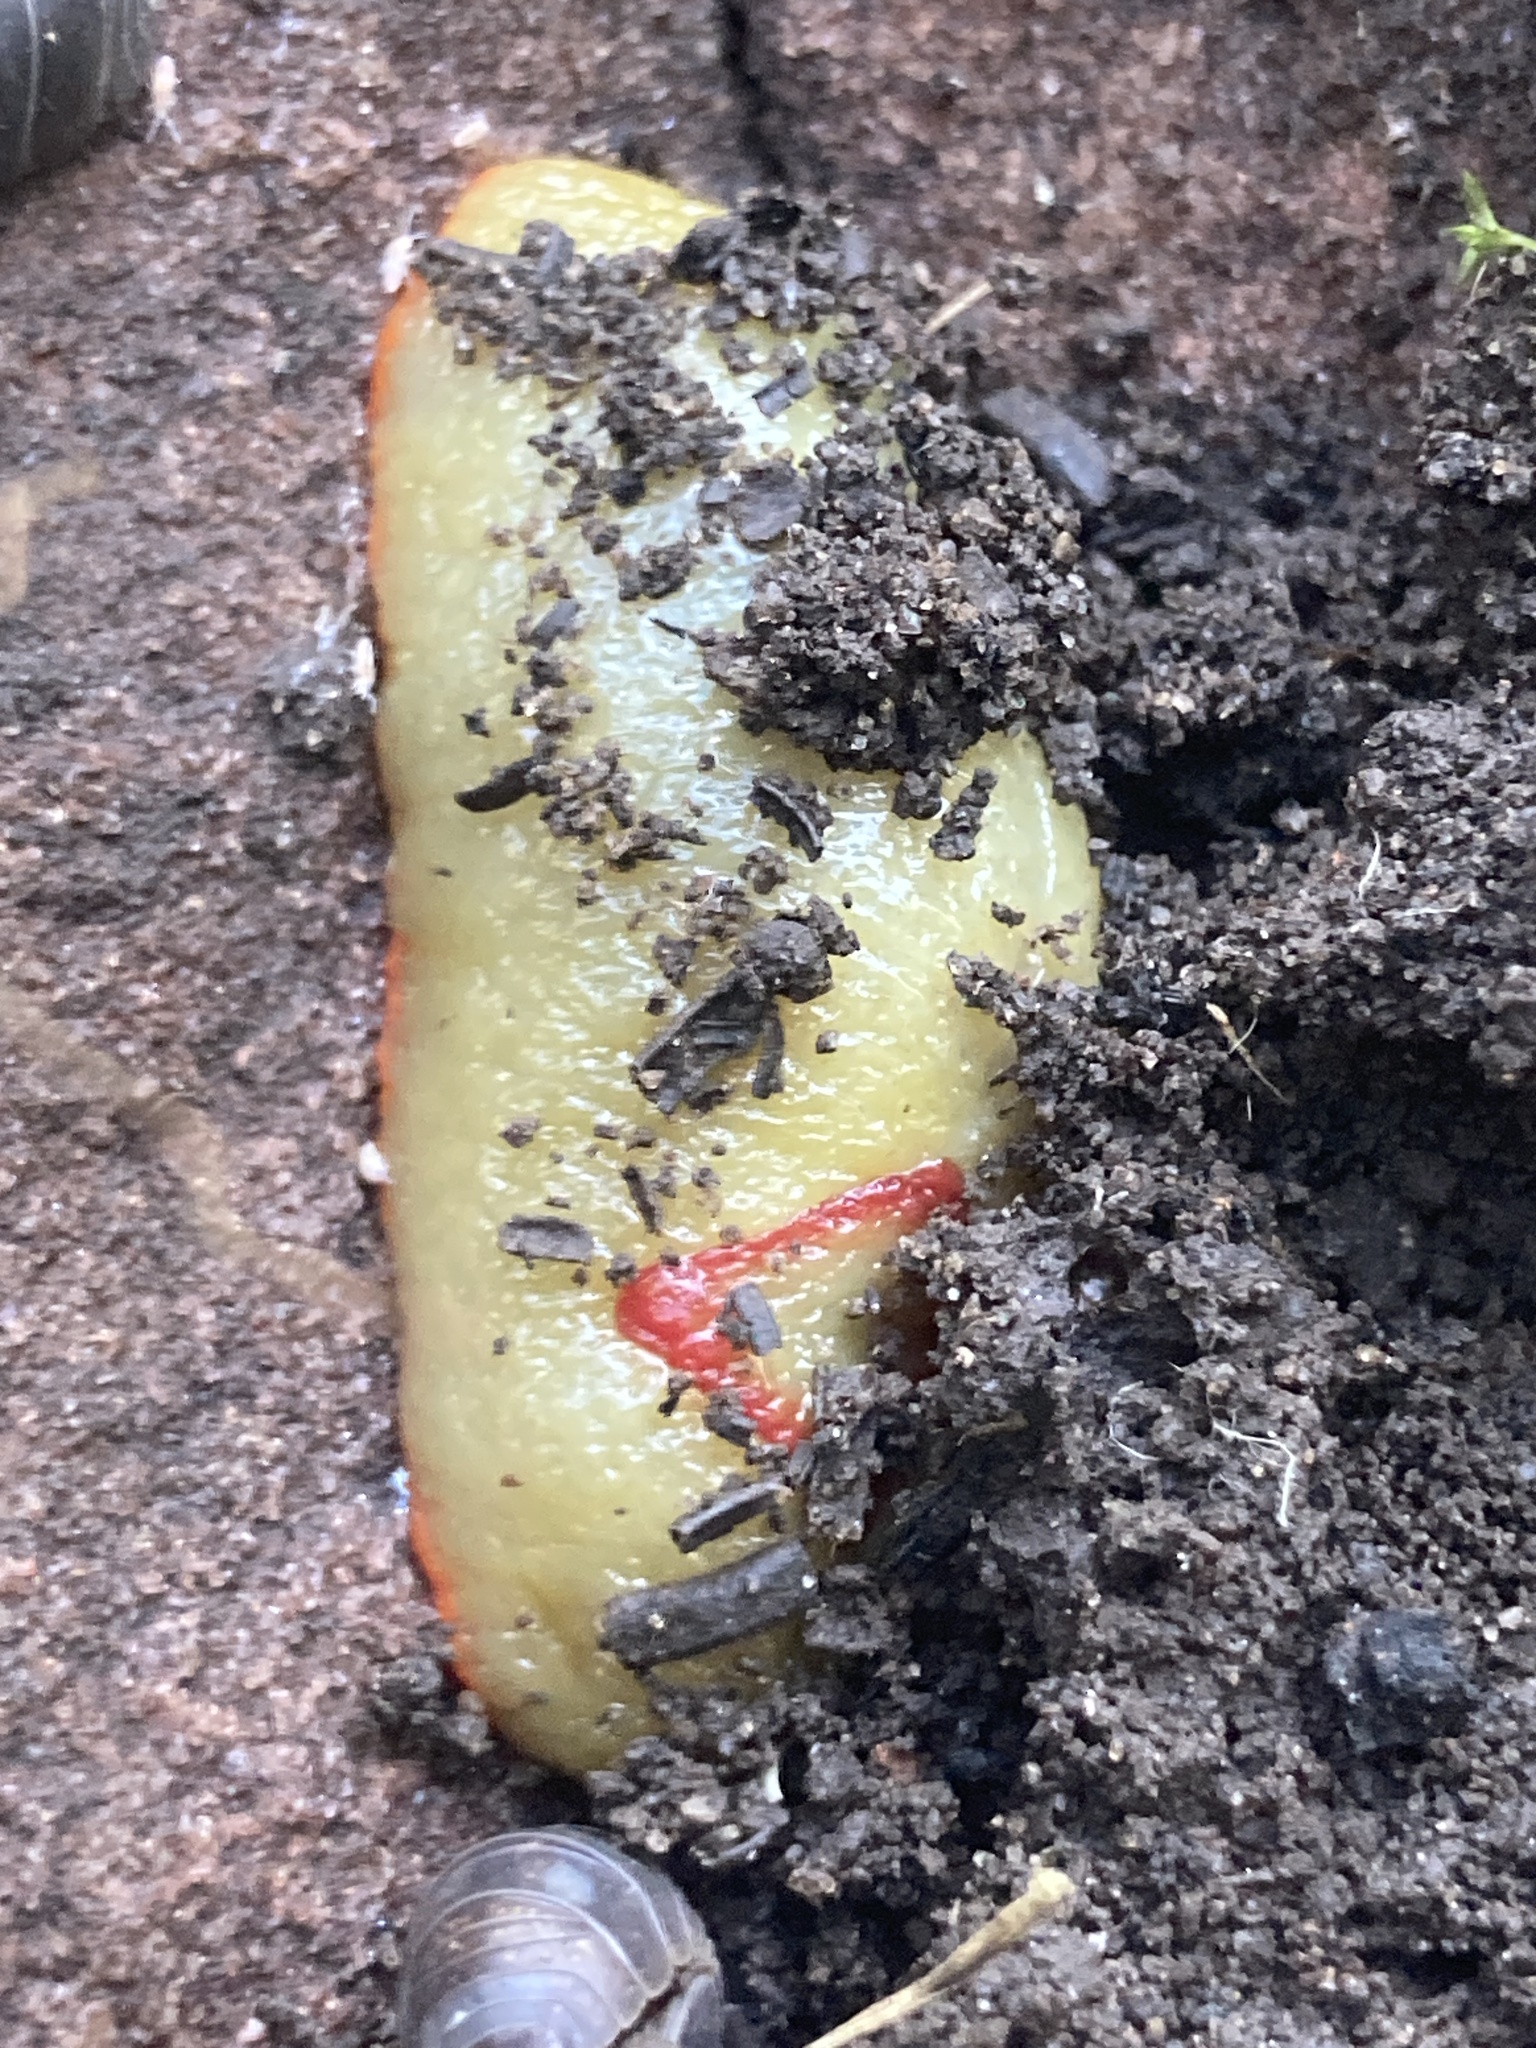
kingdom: Animalia
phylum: Mollusca
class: Gastropoda
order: Stylommatophora
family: Athoracophoridae
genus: Triboniophorus
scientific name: Triboniophorus graeffei
